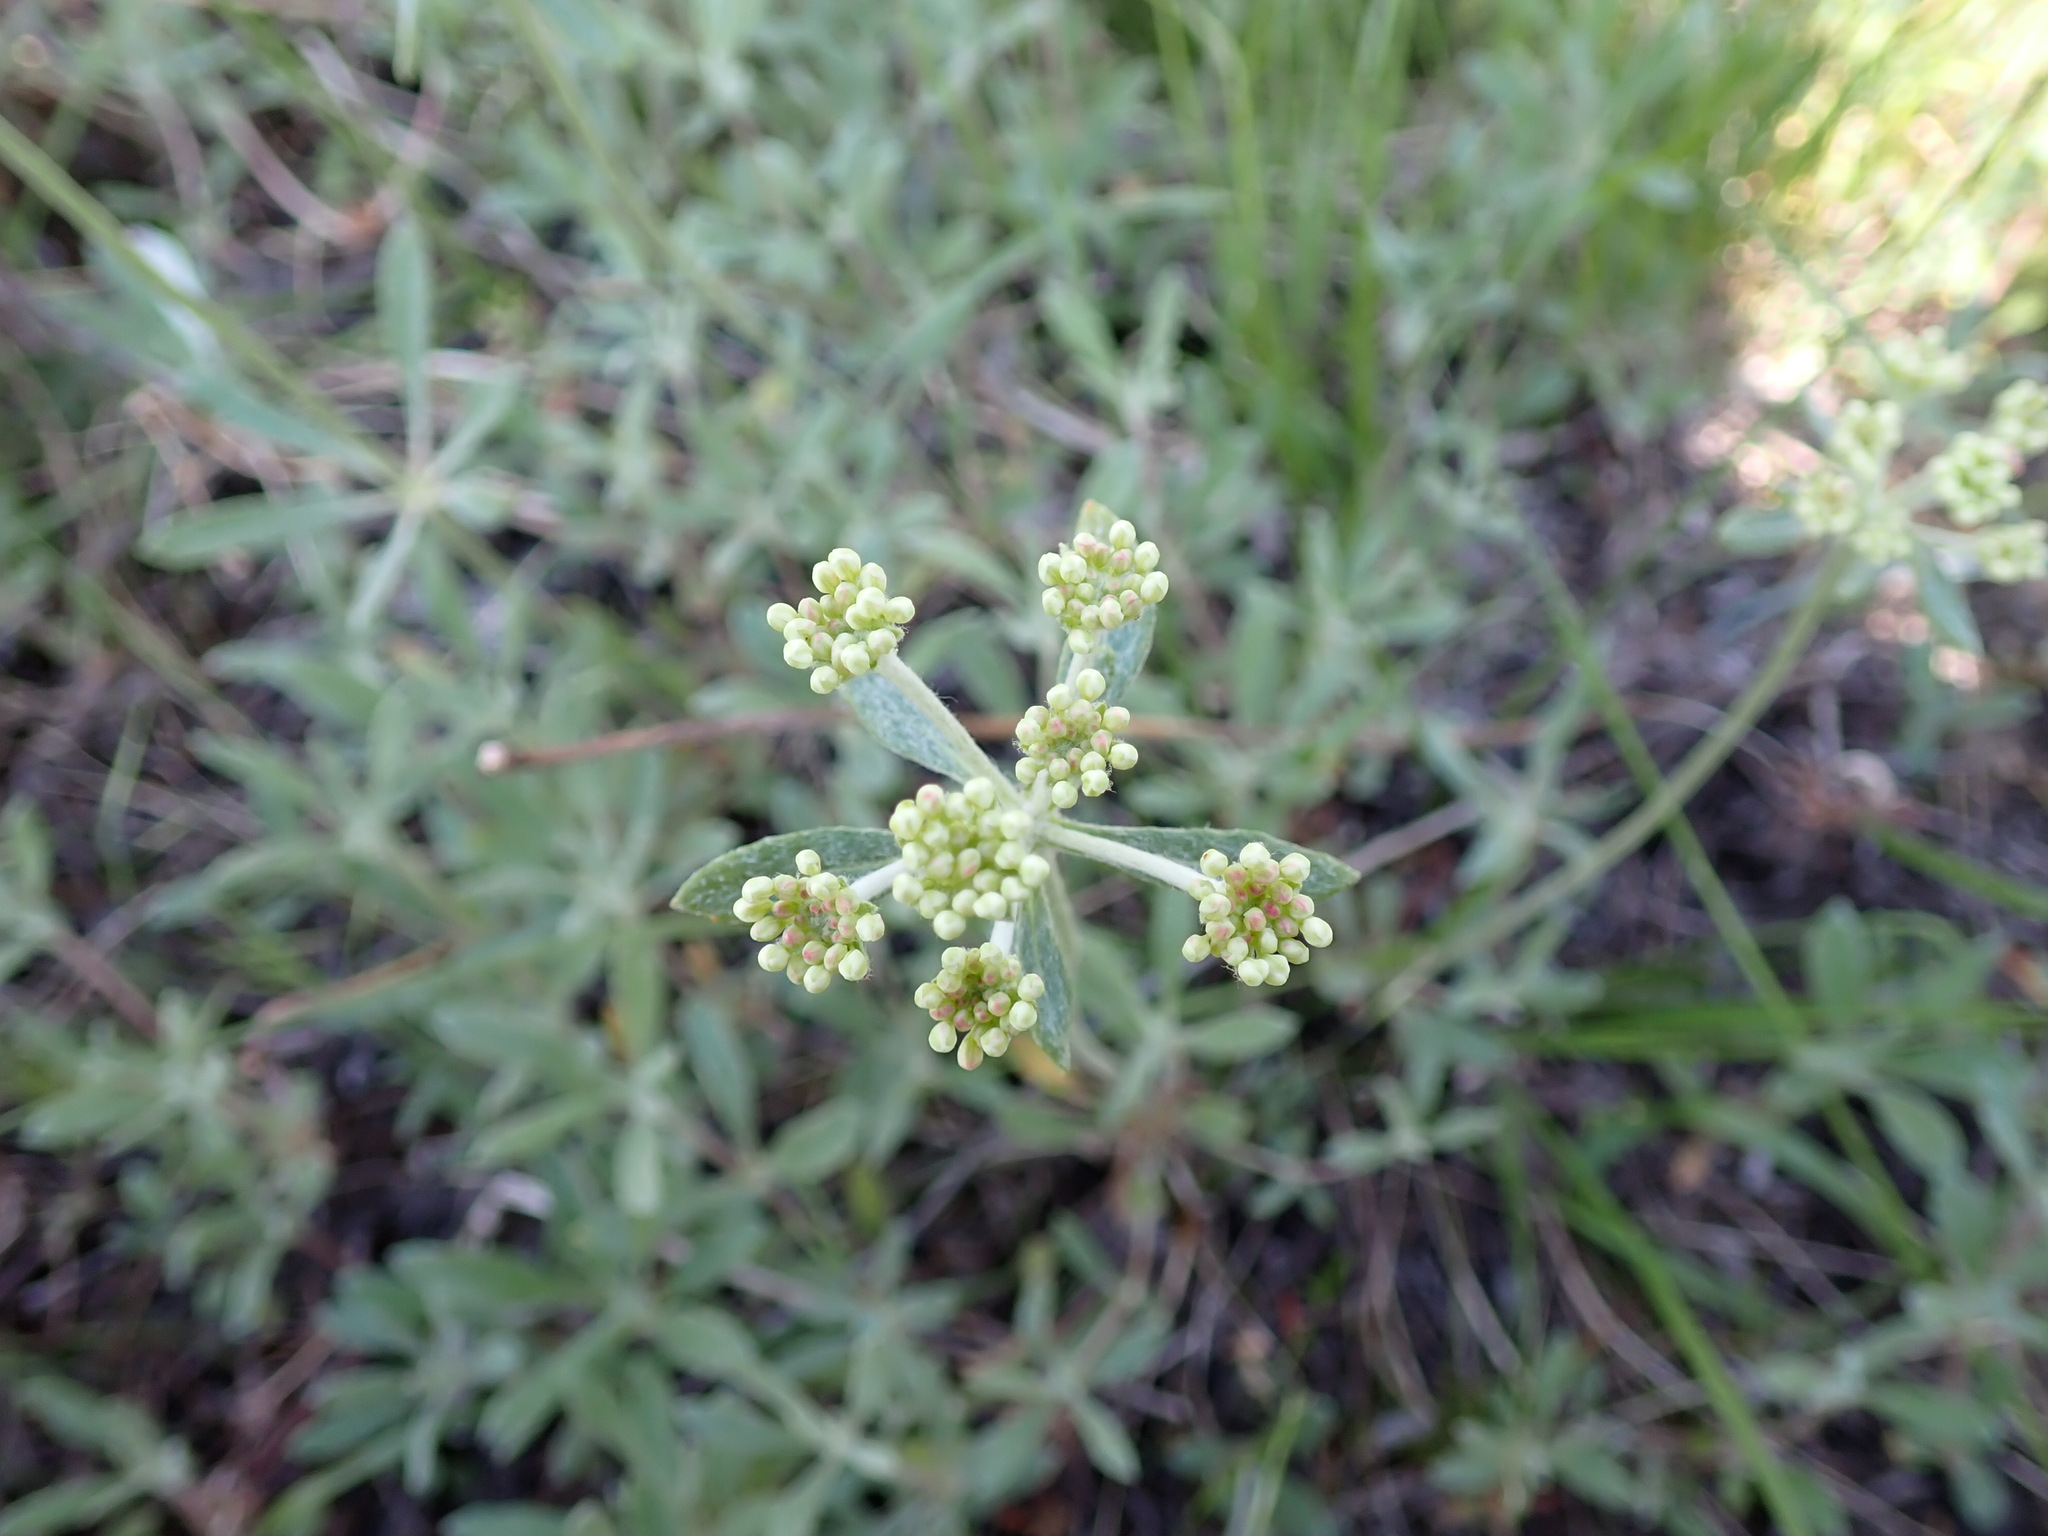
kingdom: Plantae
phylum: Tracheophyta
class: Magnoliopsida
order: Caryophyllales
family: Polygonaceae
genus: Eriogonum
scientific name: Eriogonum heracleoides
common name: Wyeth's buckwheat
